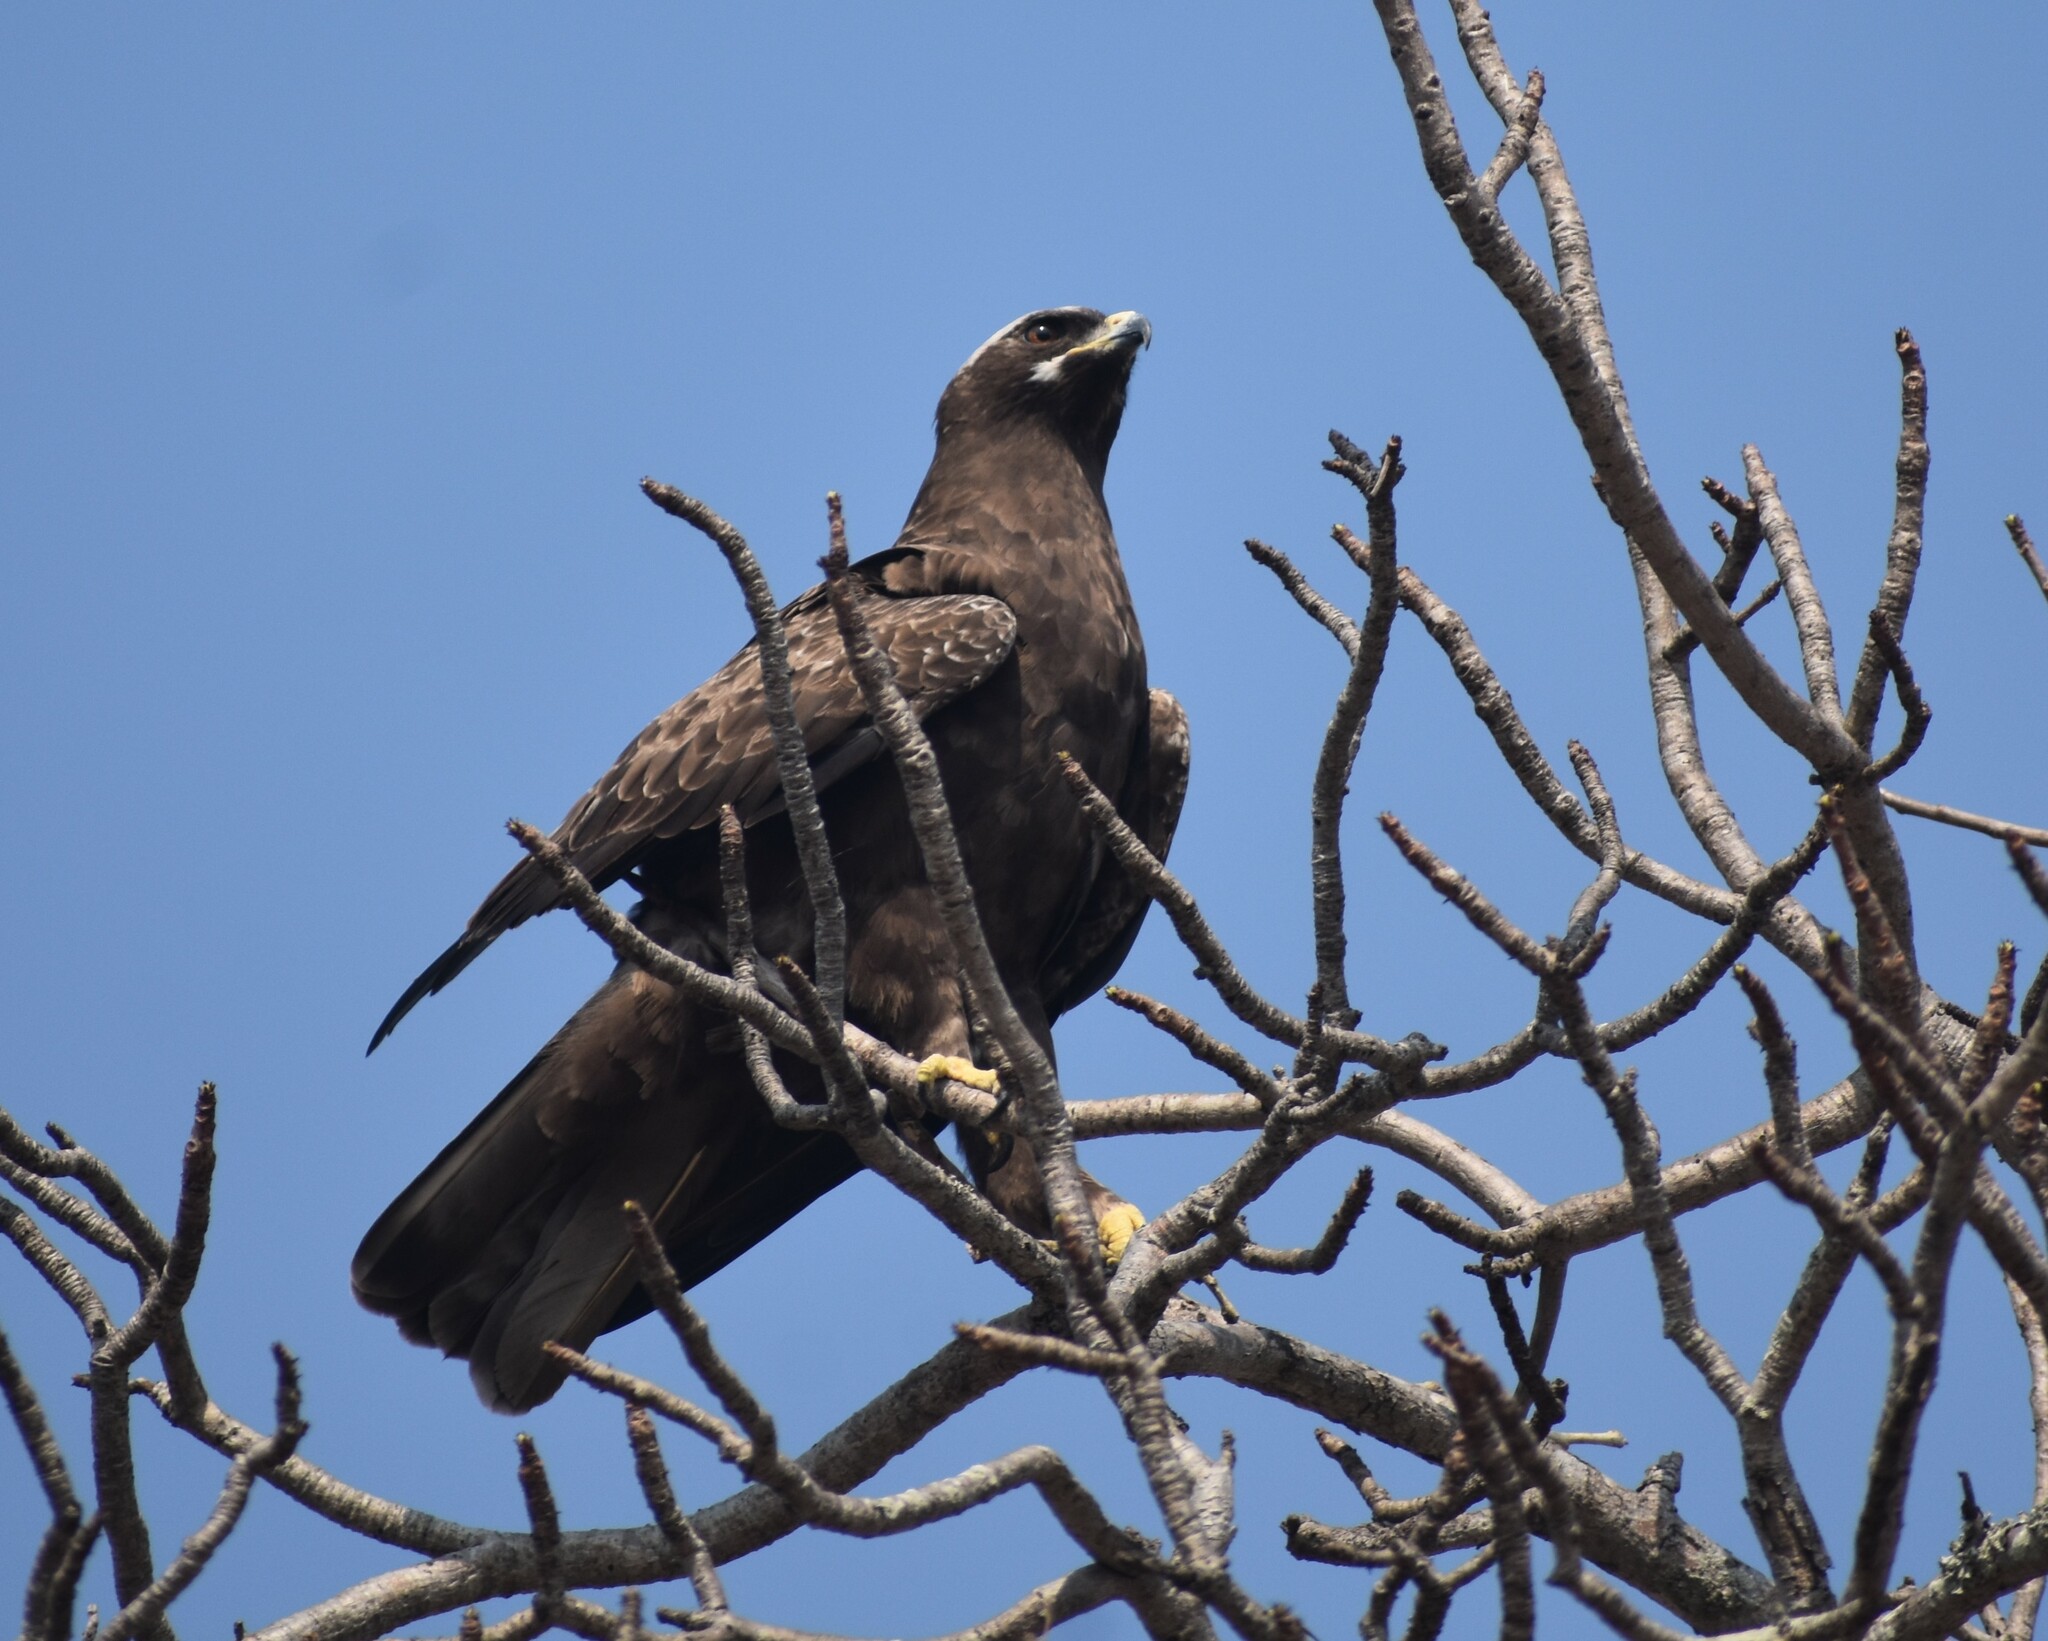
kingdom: Animalia
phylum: Chordata
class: Aves
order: Accipitriformes
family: Accipitridae
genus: Hieraaetus
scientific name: Hieraaetus wahlbergi
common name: Wahlberg's eagle
